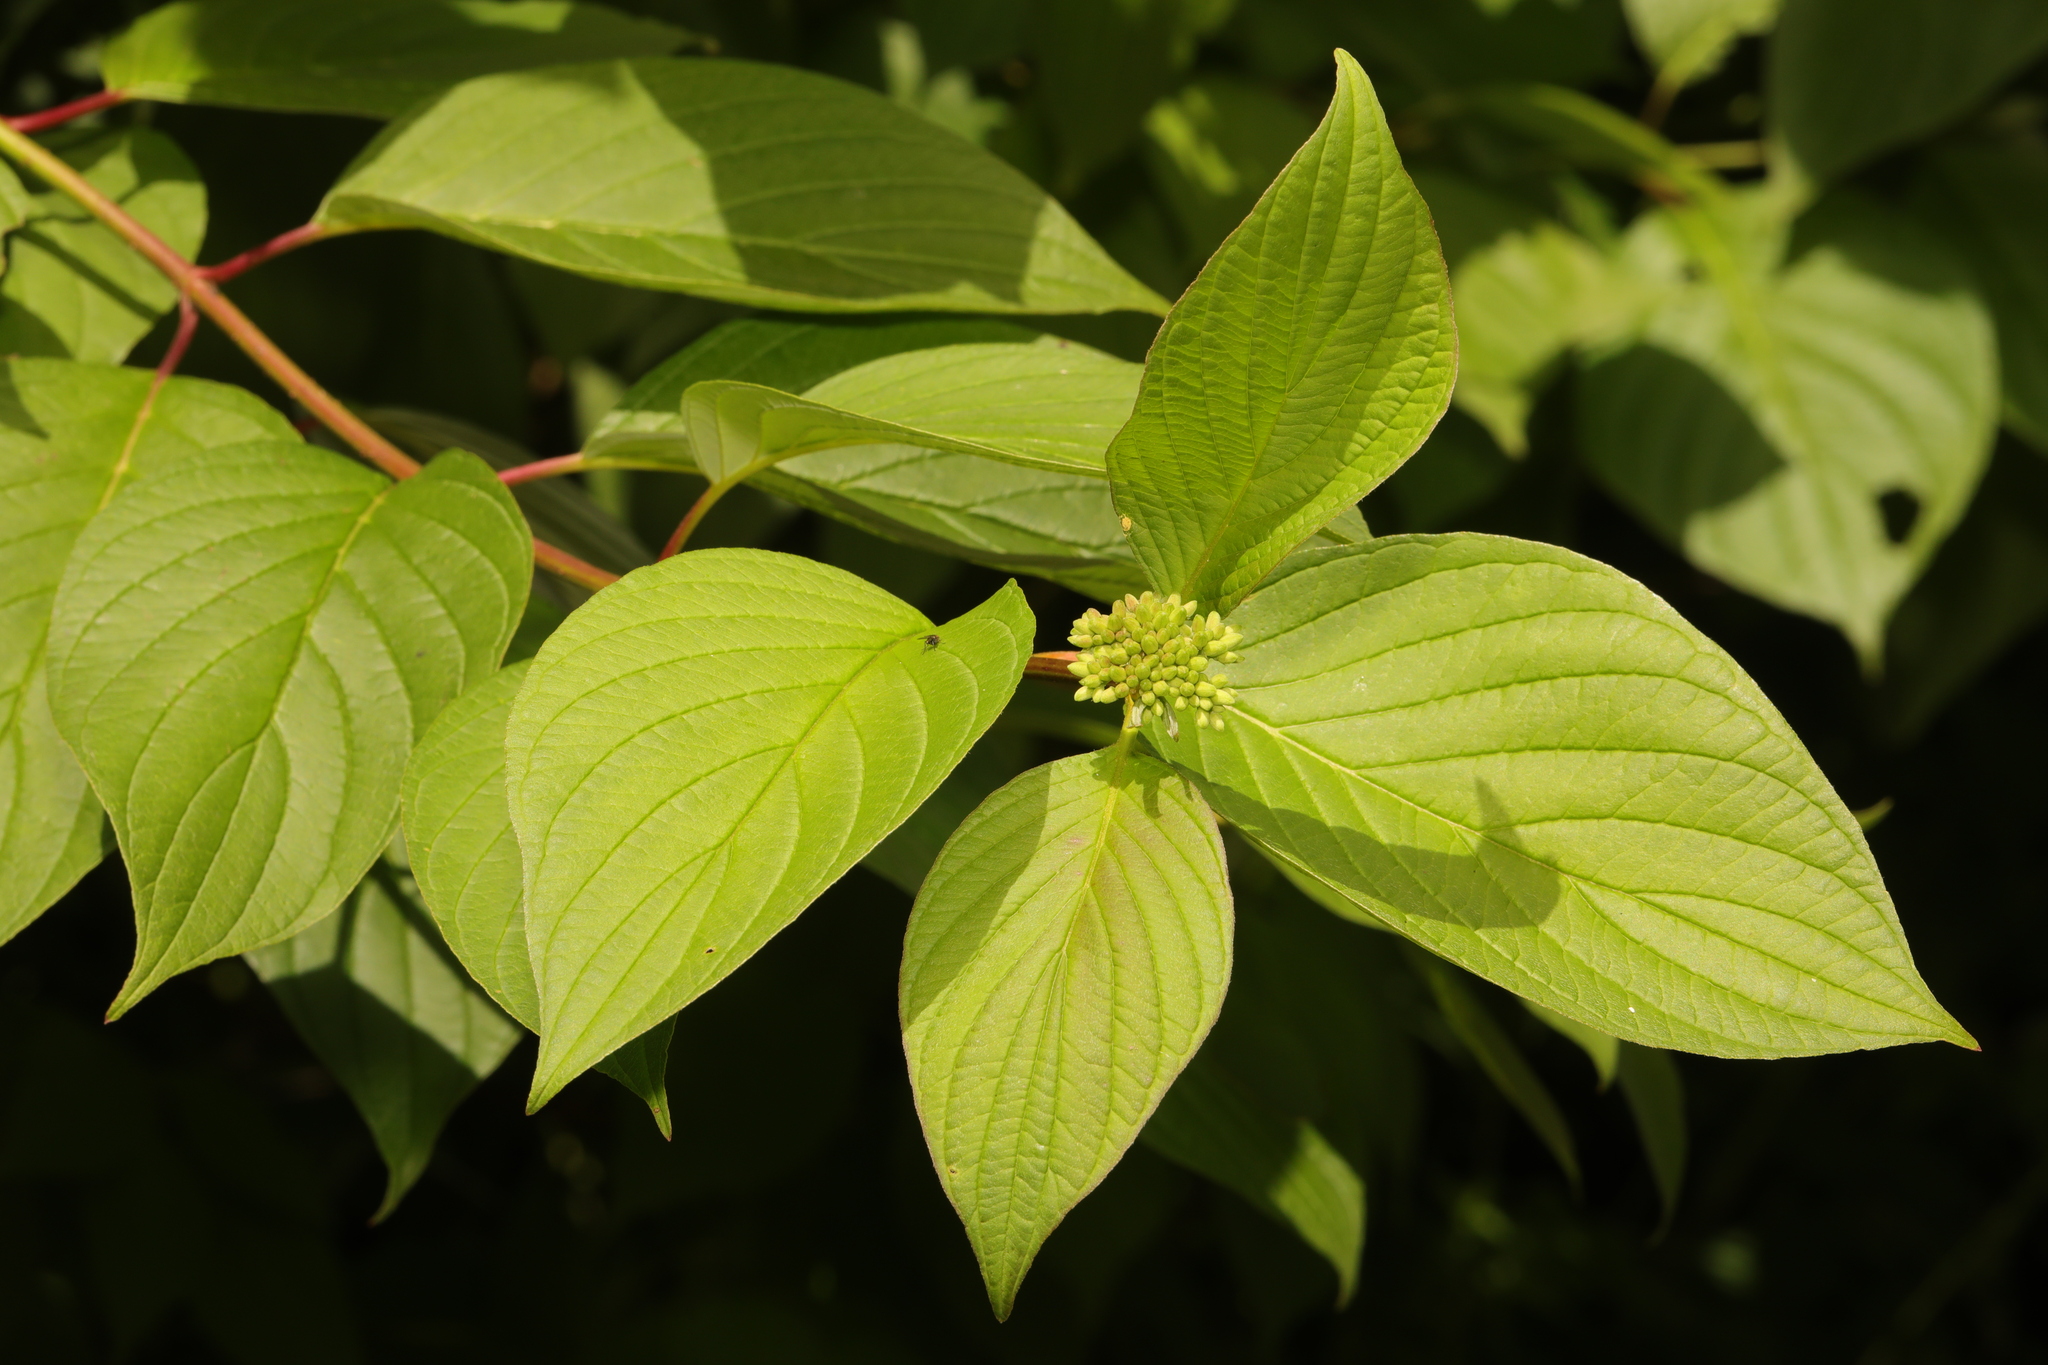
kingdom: Plantae
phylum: Tracheophyta
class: Magnoliopsida
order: Cornales
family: Cornaceae
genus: Cornus
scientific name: Cornus sericea
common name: Red-osier dogwood
